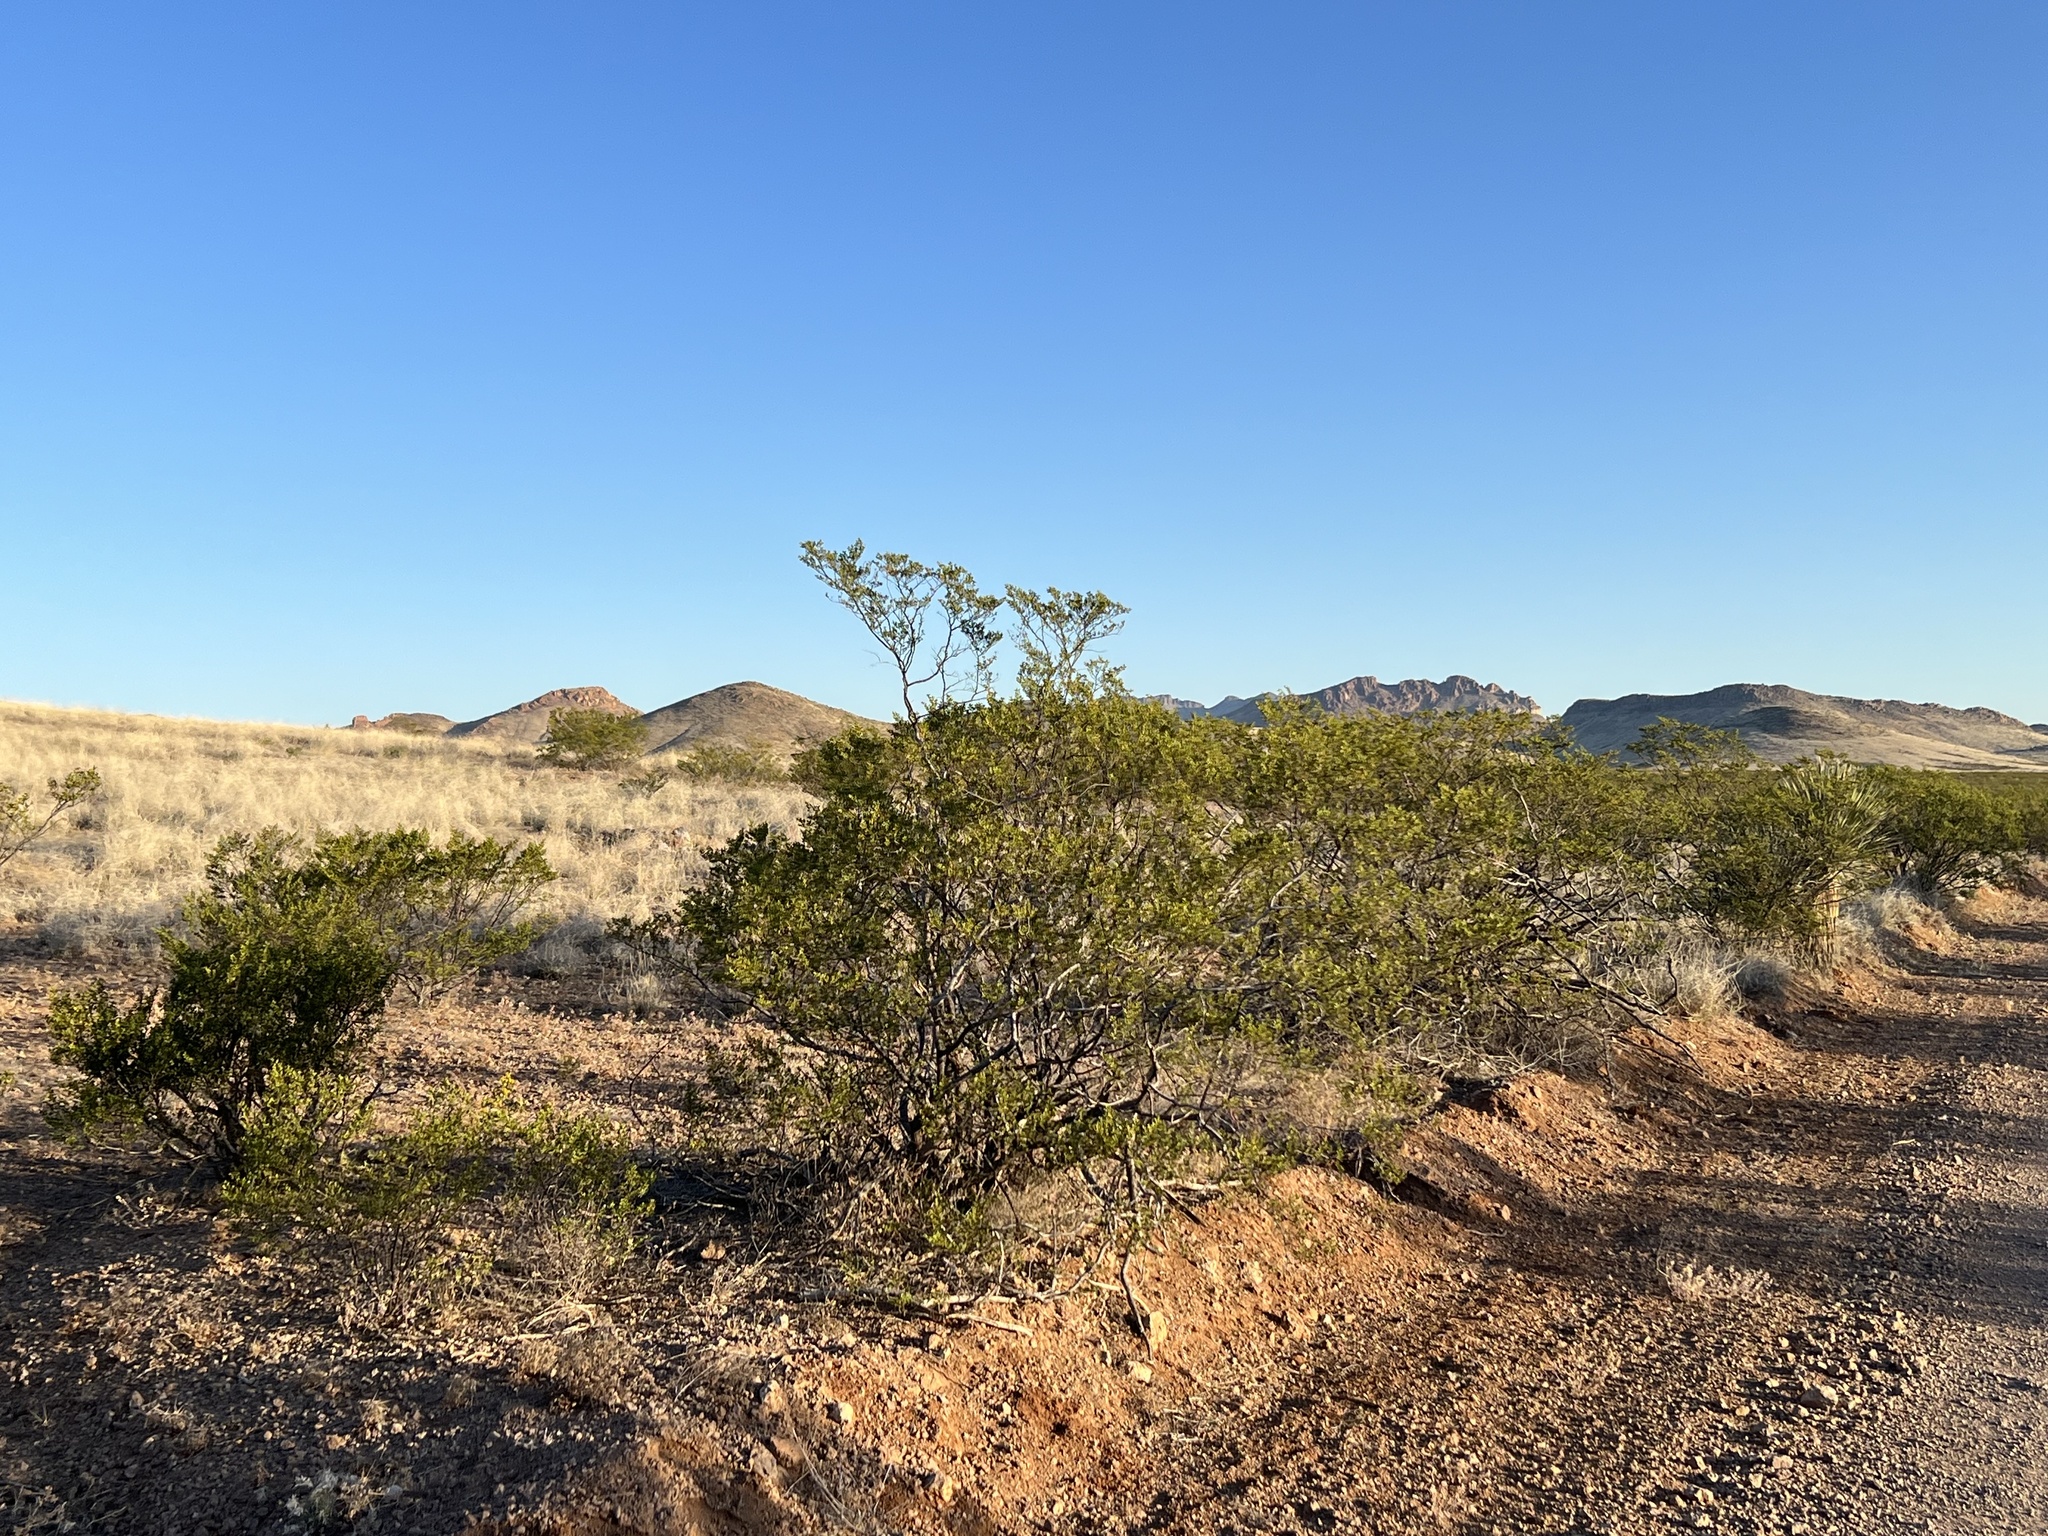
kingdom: Plantae
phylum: Tracheophyta
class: Magnoliopsida
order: Zygophyllales
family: Zygophyllaceae
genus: Larrea
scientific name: Larrea tridentata
